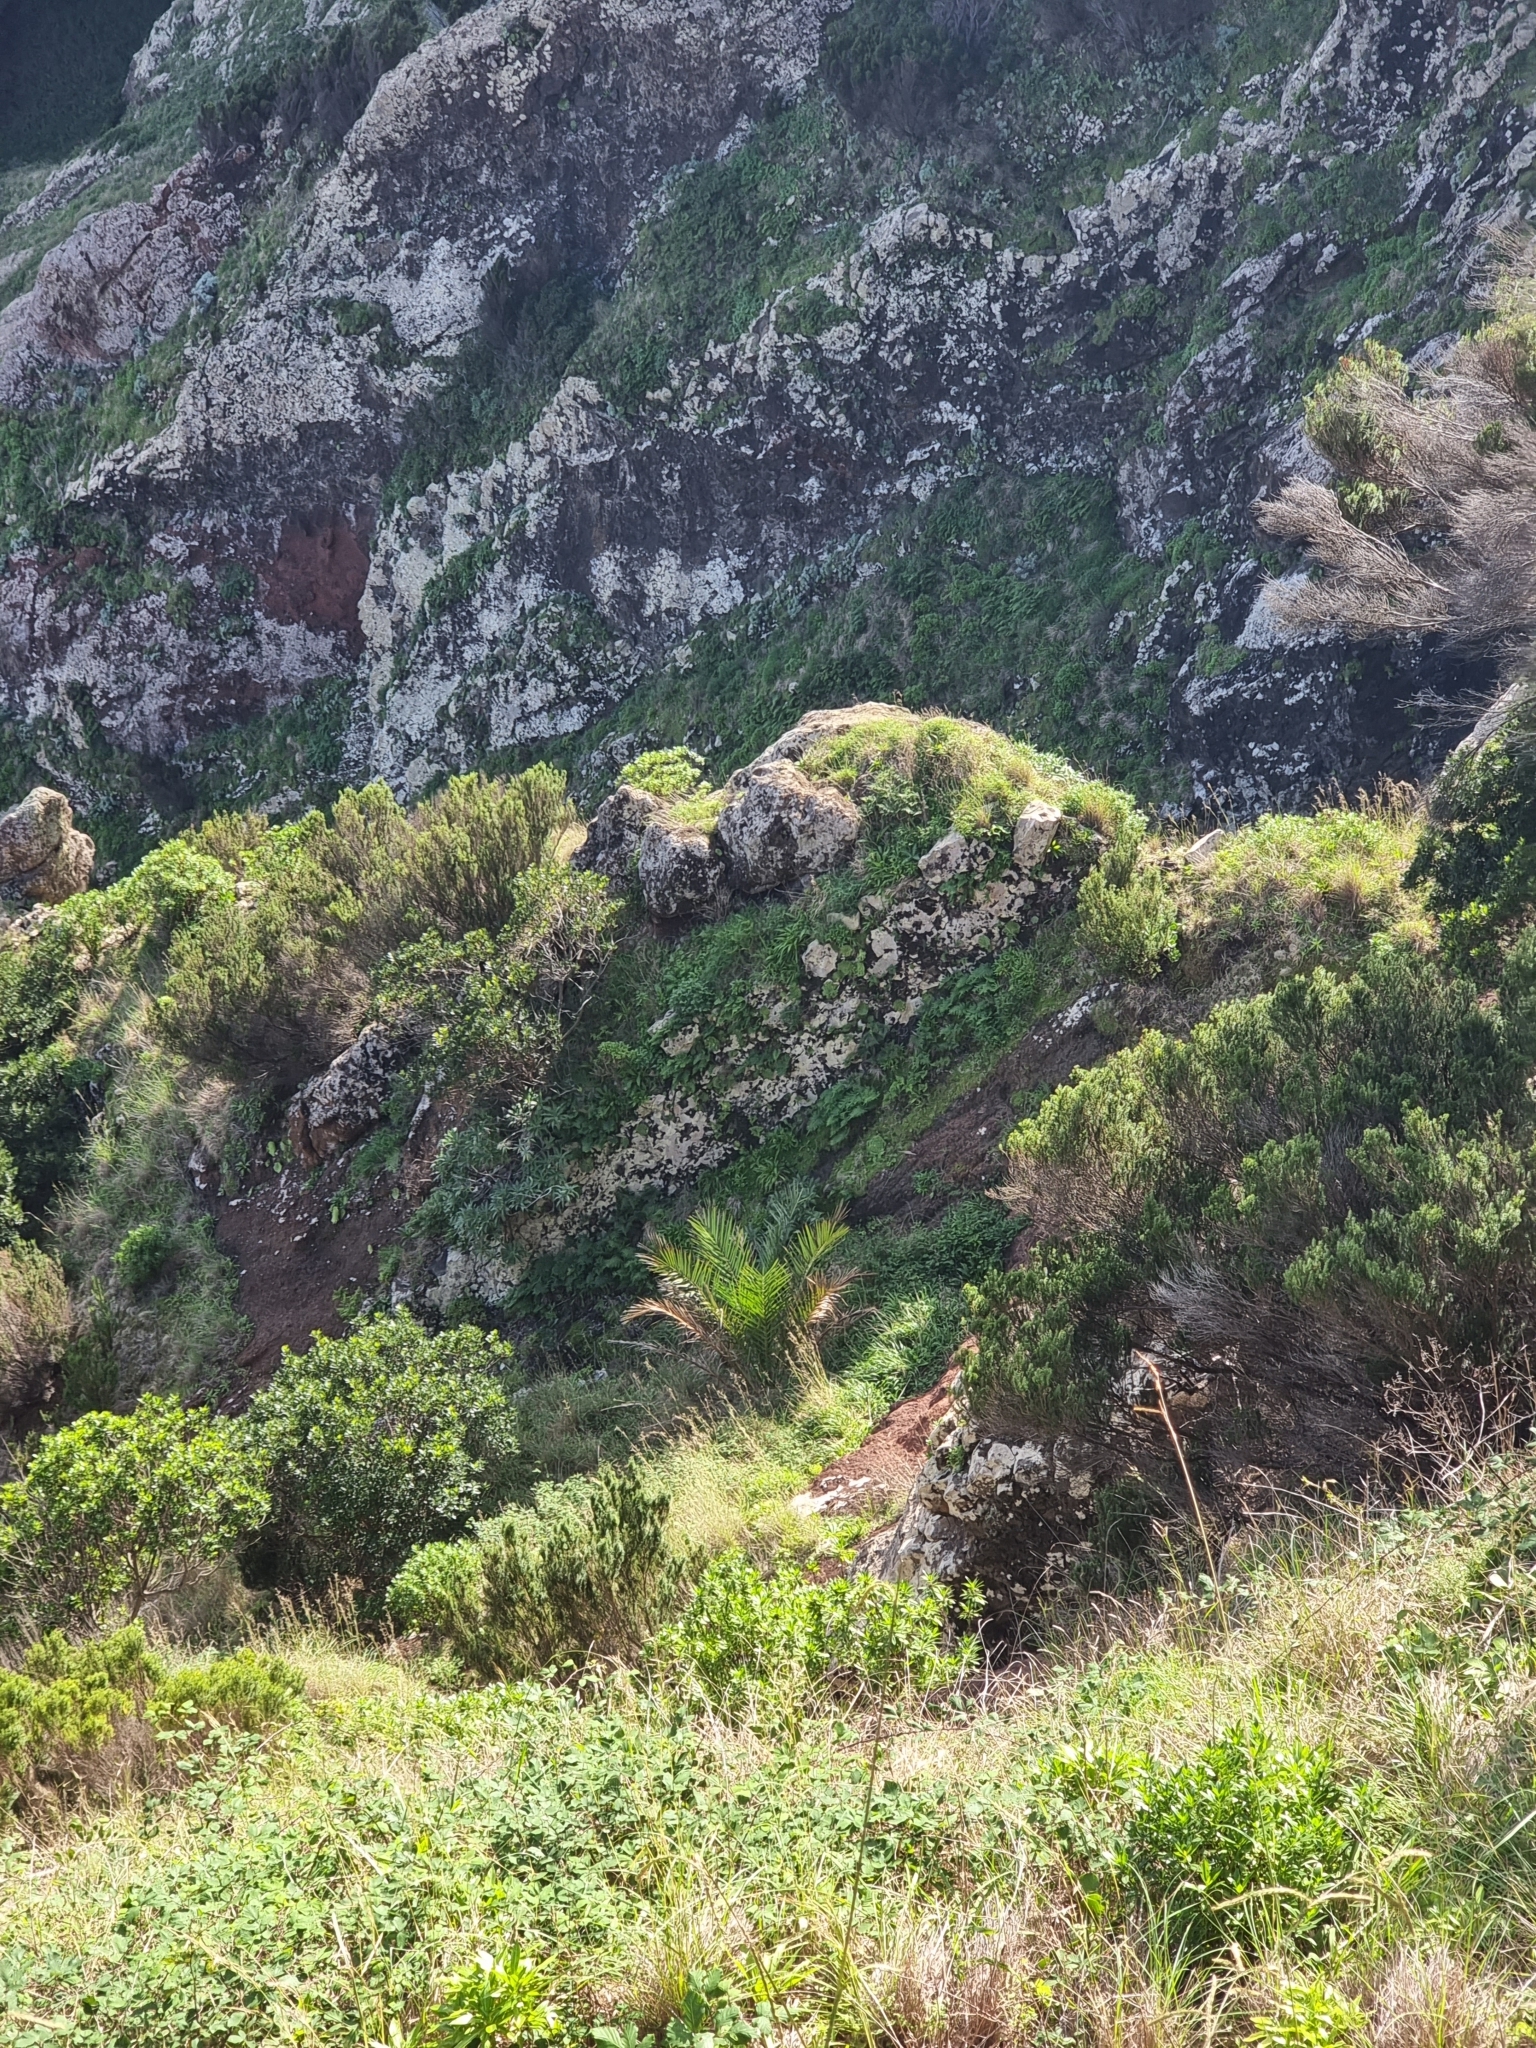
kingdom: Plantae
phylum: Tracheophyta
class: Liliopsida
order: Arecales
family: Arecaceae
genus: Phoenix
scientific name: Phoenix canariensis
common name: Canary island date palm
